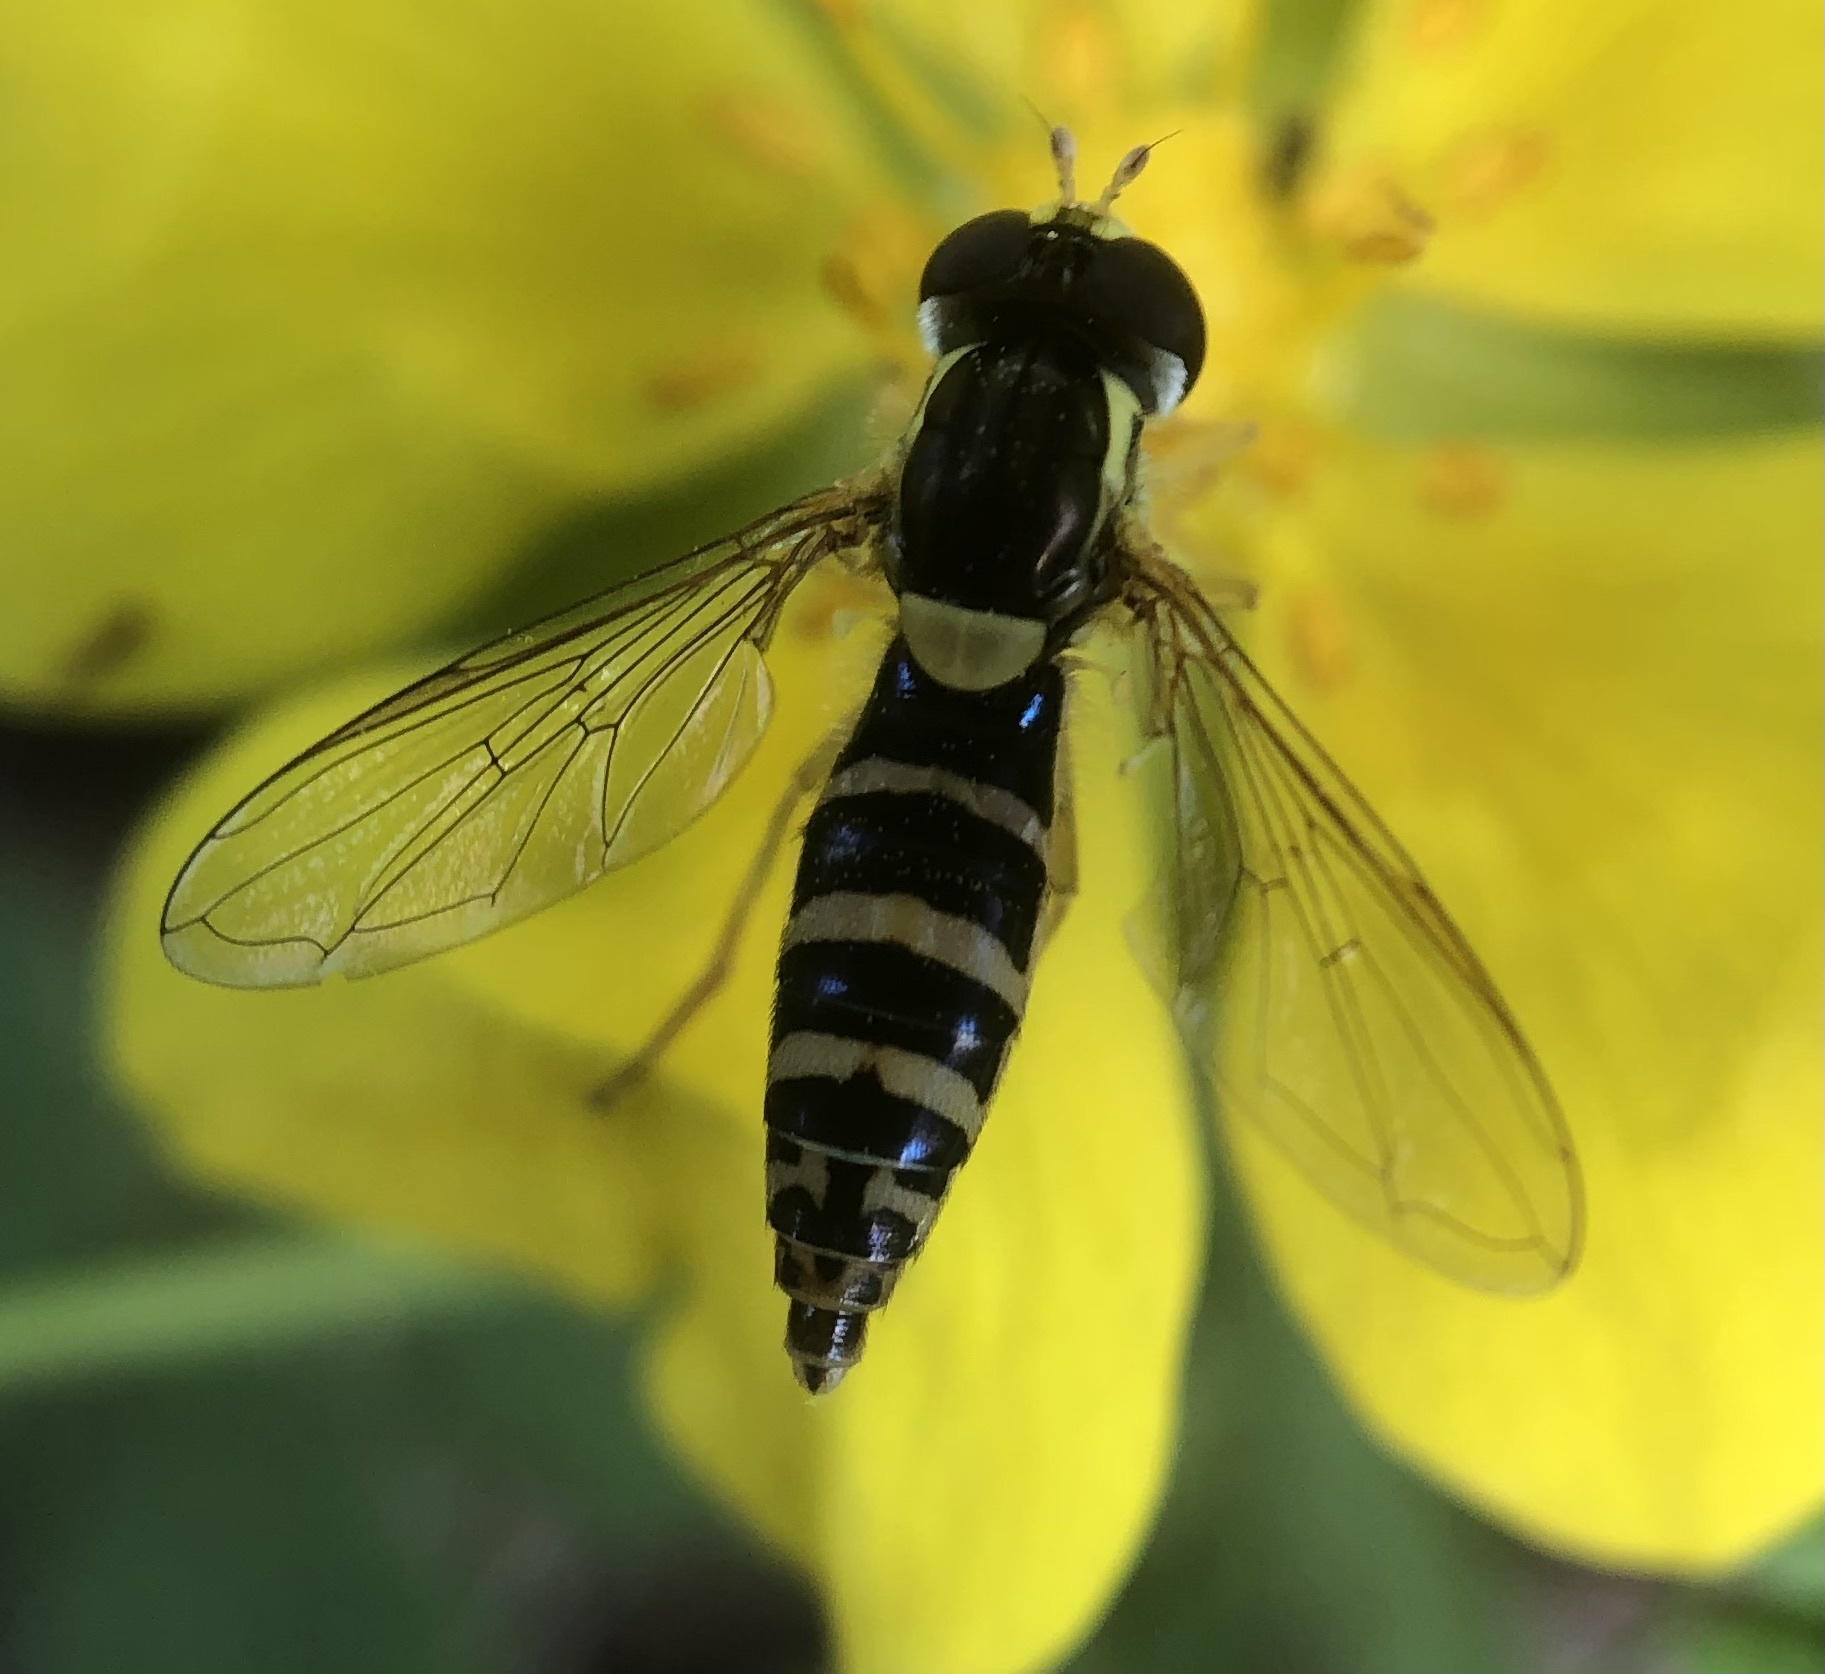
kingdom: Animalia
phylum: Arthropoda
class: Insecta
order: Diptera
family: Syrphidae
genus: Sphaerophoria
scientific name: Sphaerophoria
